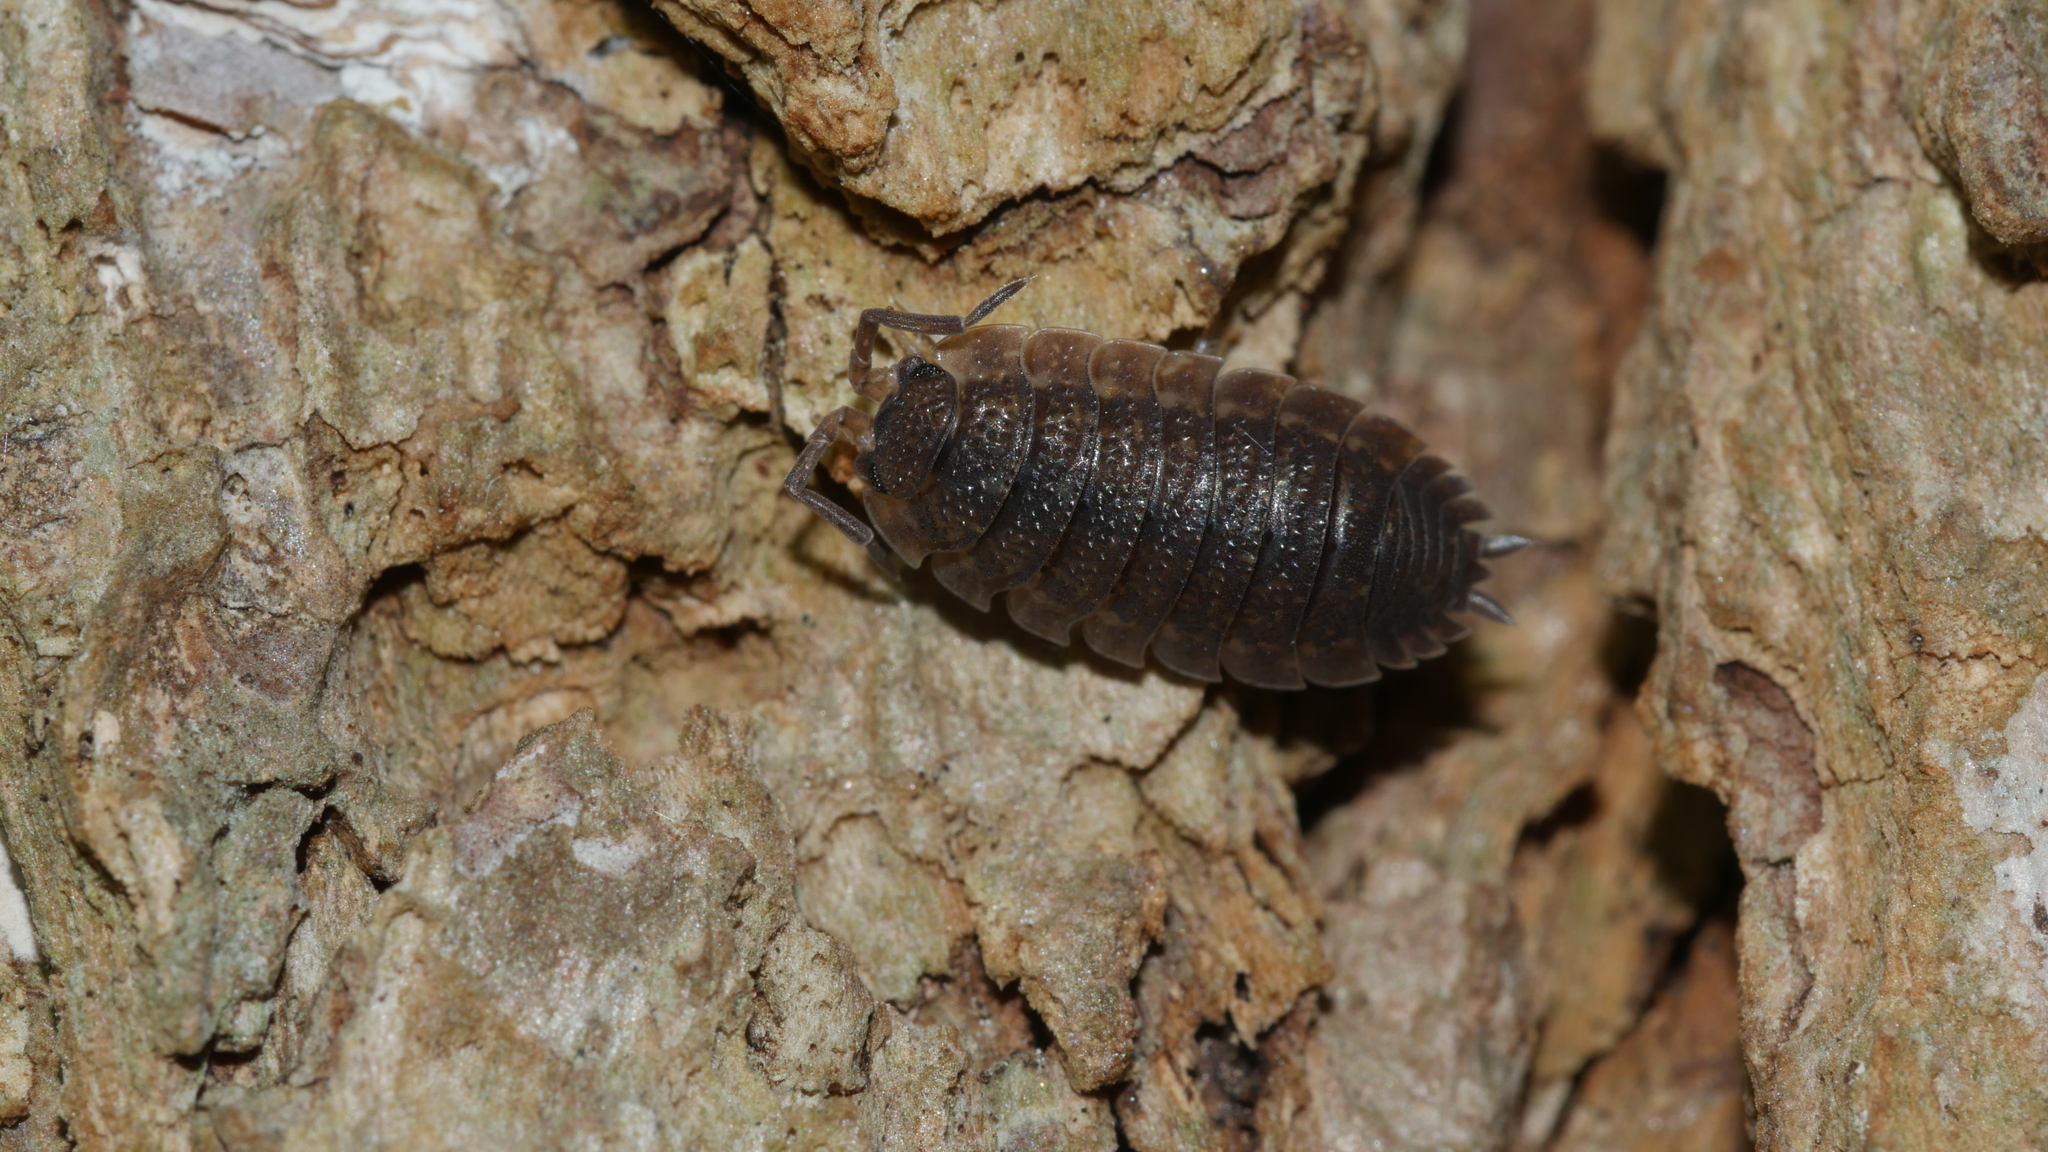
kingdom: Animalia
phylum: Arthropoda
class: Malacostraca
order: Isopoda
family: Porcellionidae
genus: Porcellio
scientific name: Porcellio scaber
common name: Common rough woodlouse
